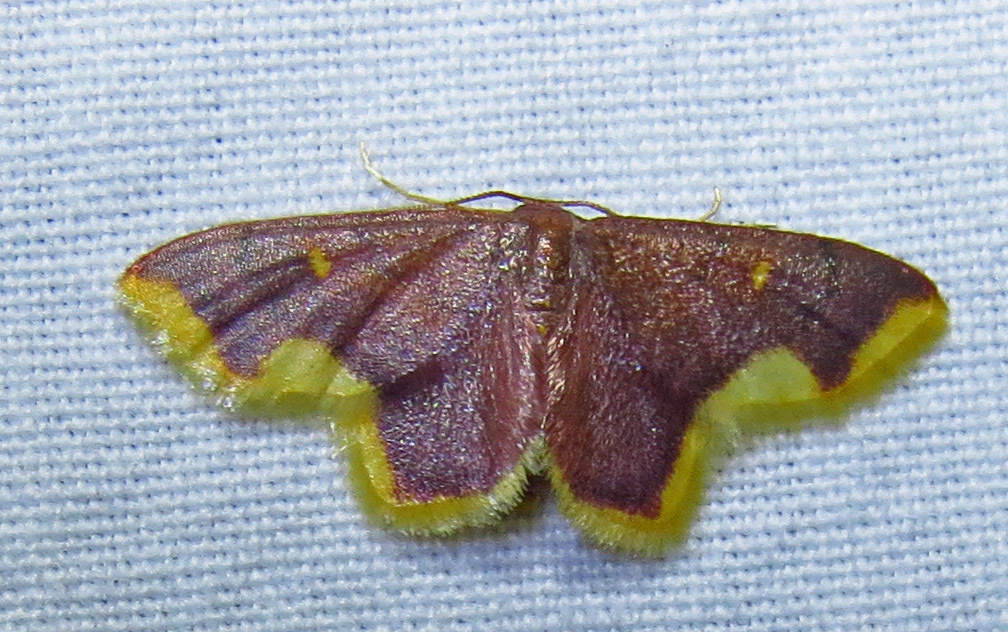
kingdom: Animalia
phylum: Arthropoda
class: Insecta
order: Lepidoptera
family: Geometridae
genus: Lophosis
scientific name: Lophosis labeculata
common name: Stained lophosis moth
